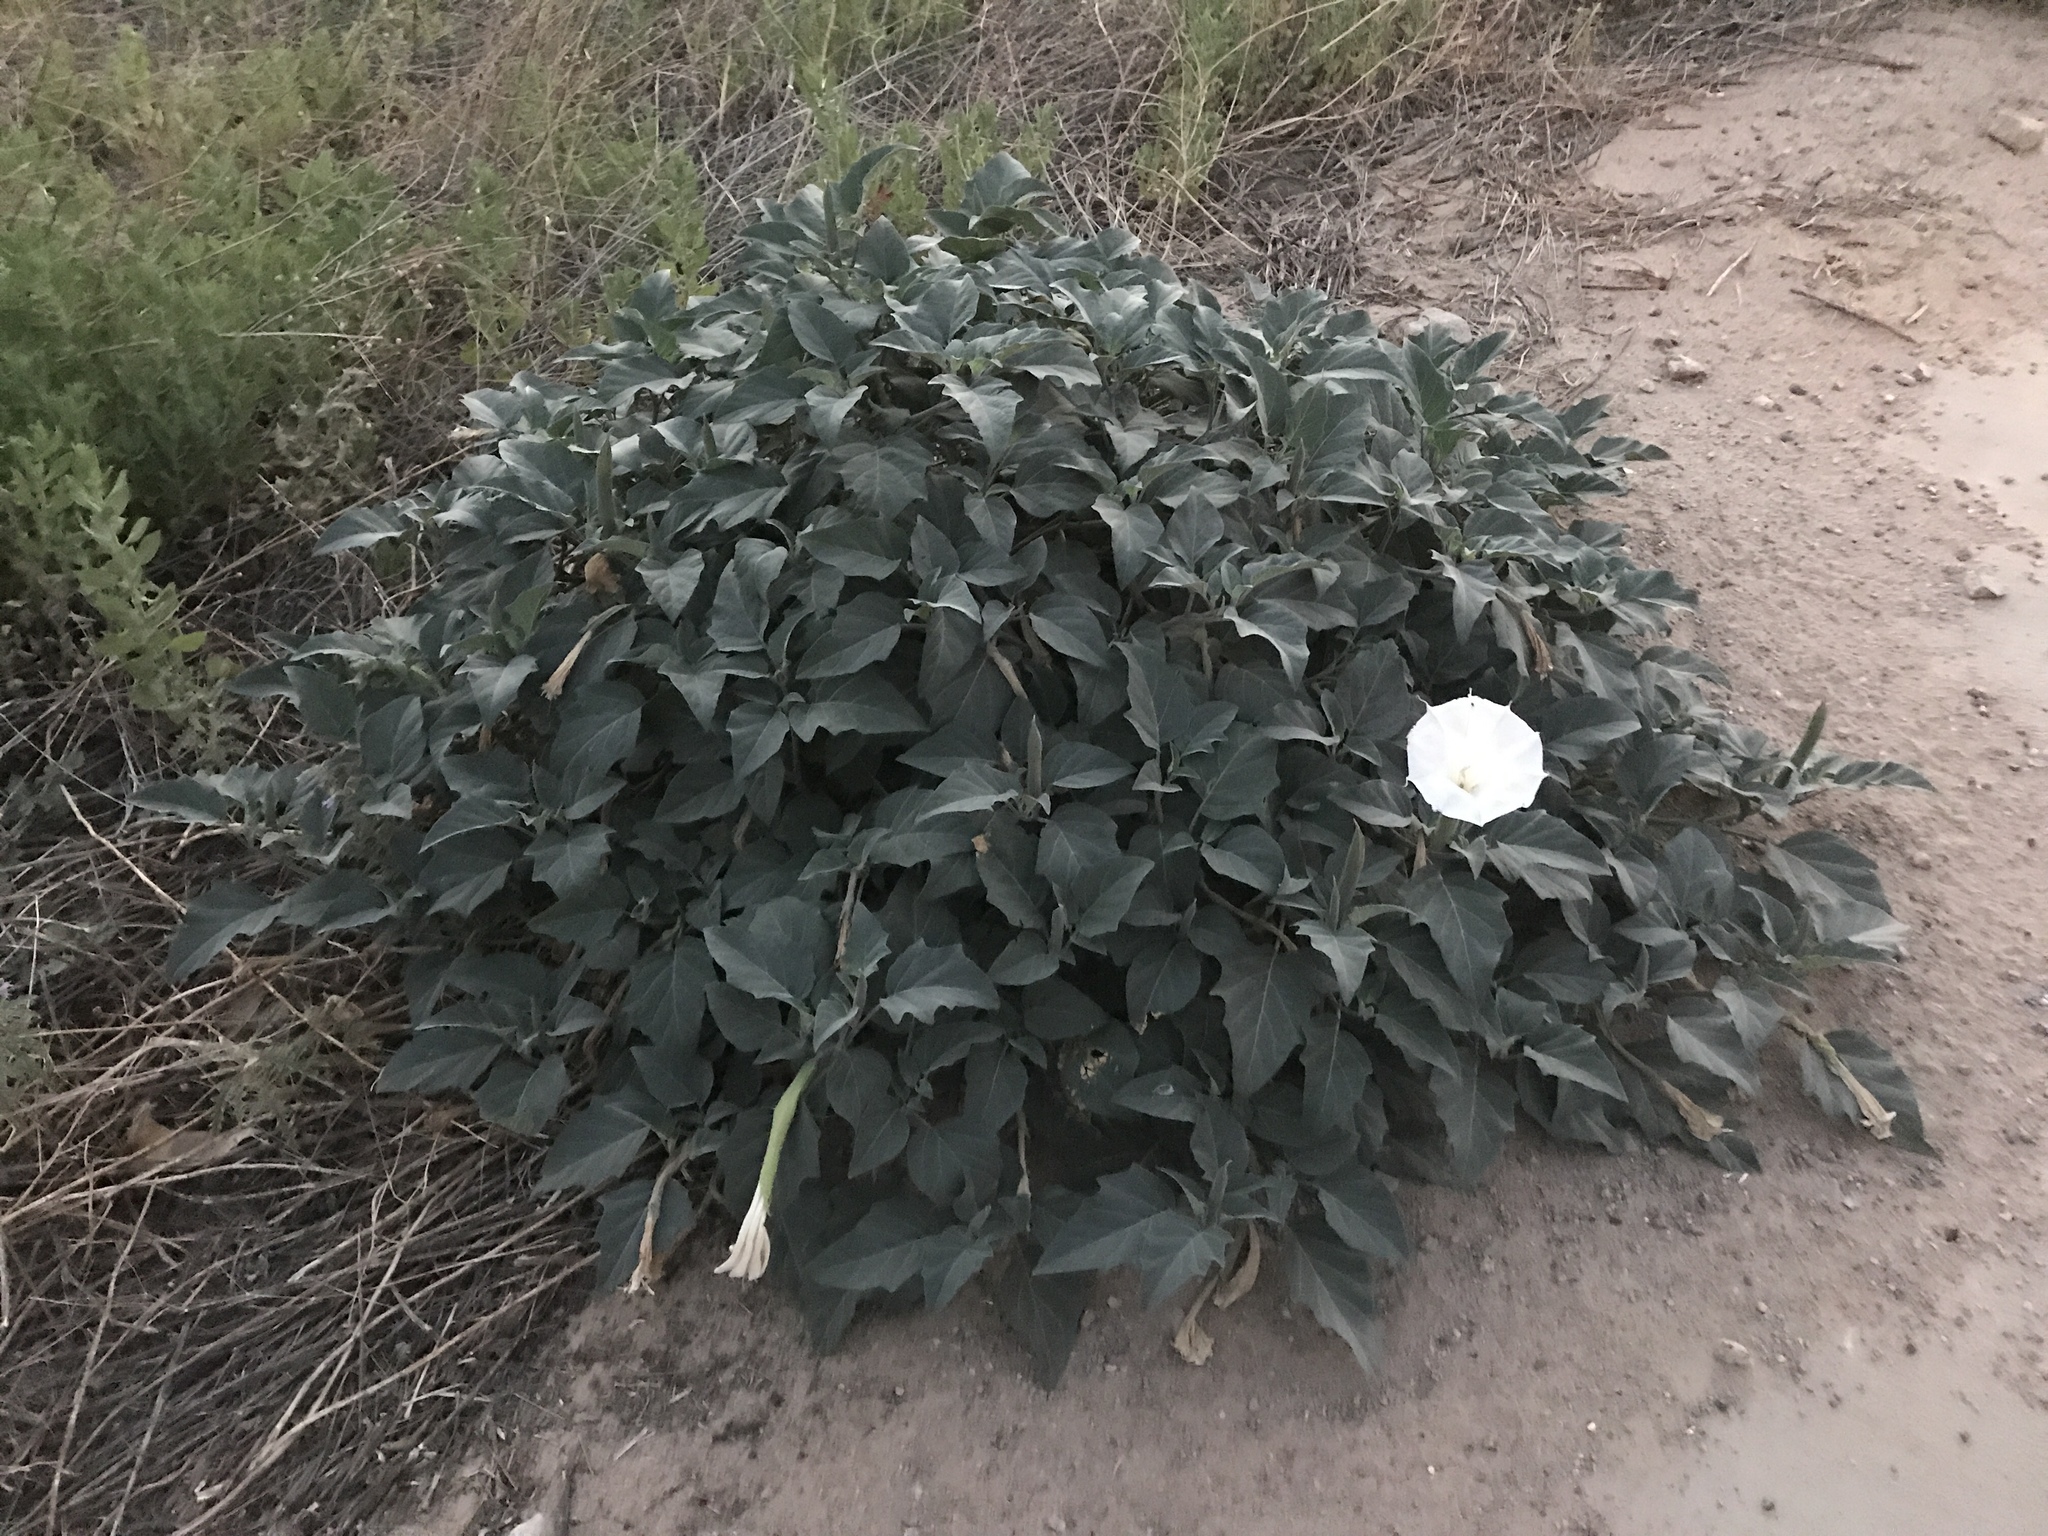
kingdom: Plantae
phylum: Tracheophyta
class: Magnoliopsida
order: Solanales
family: Solanaceae
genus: Datura
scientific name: Datura wrightii
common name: Sacred thorn-apple
